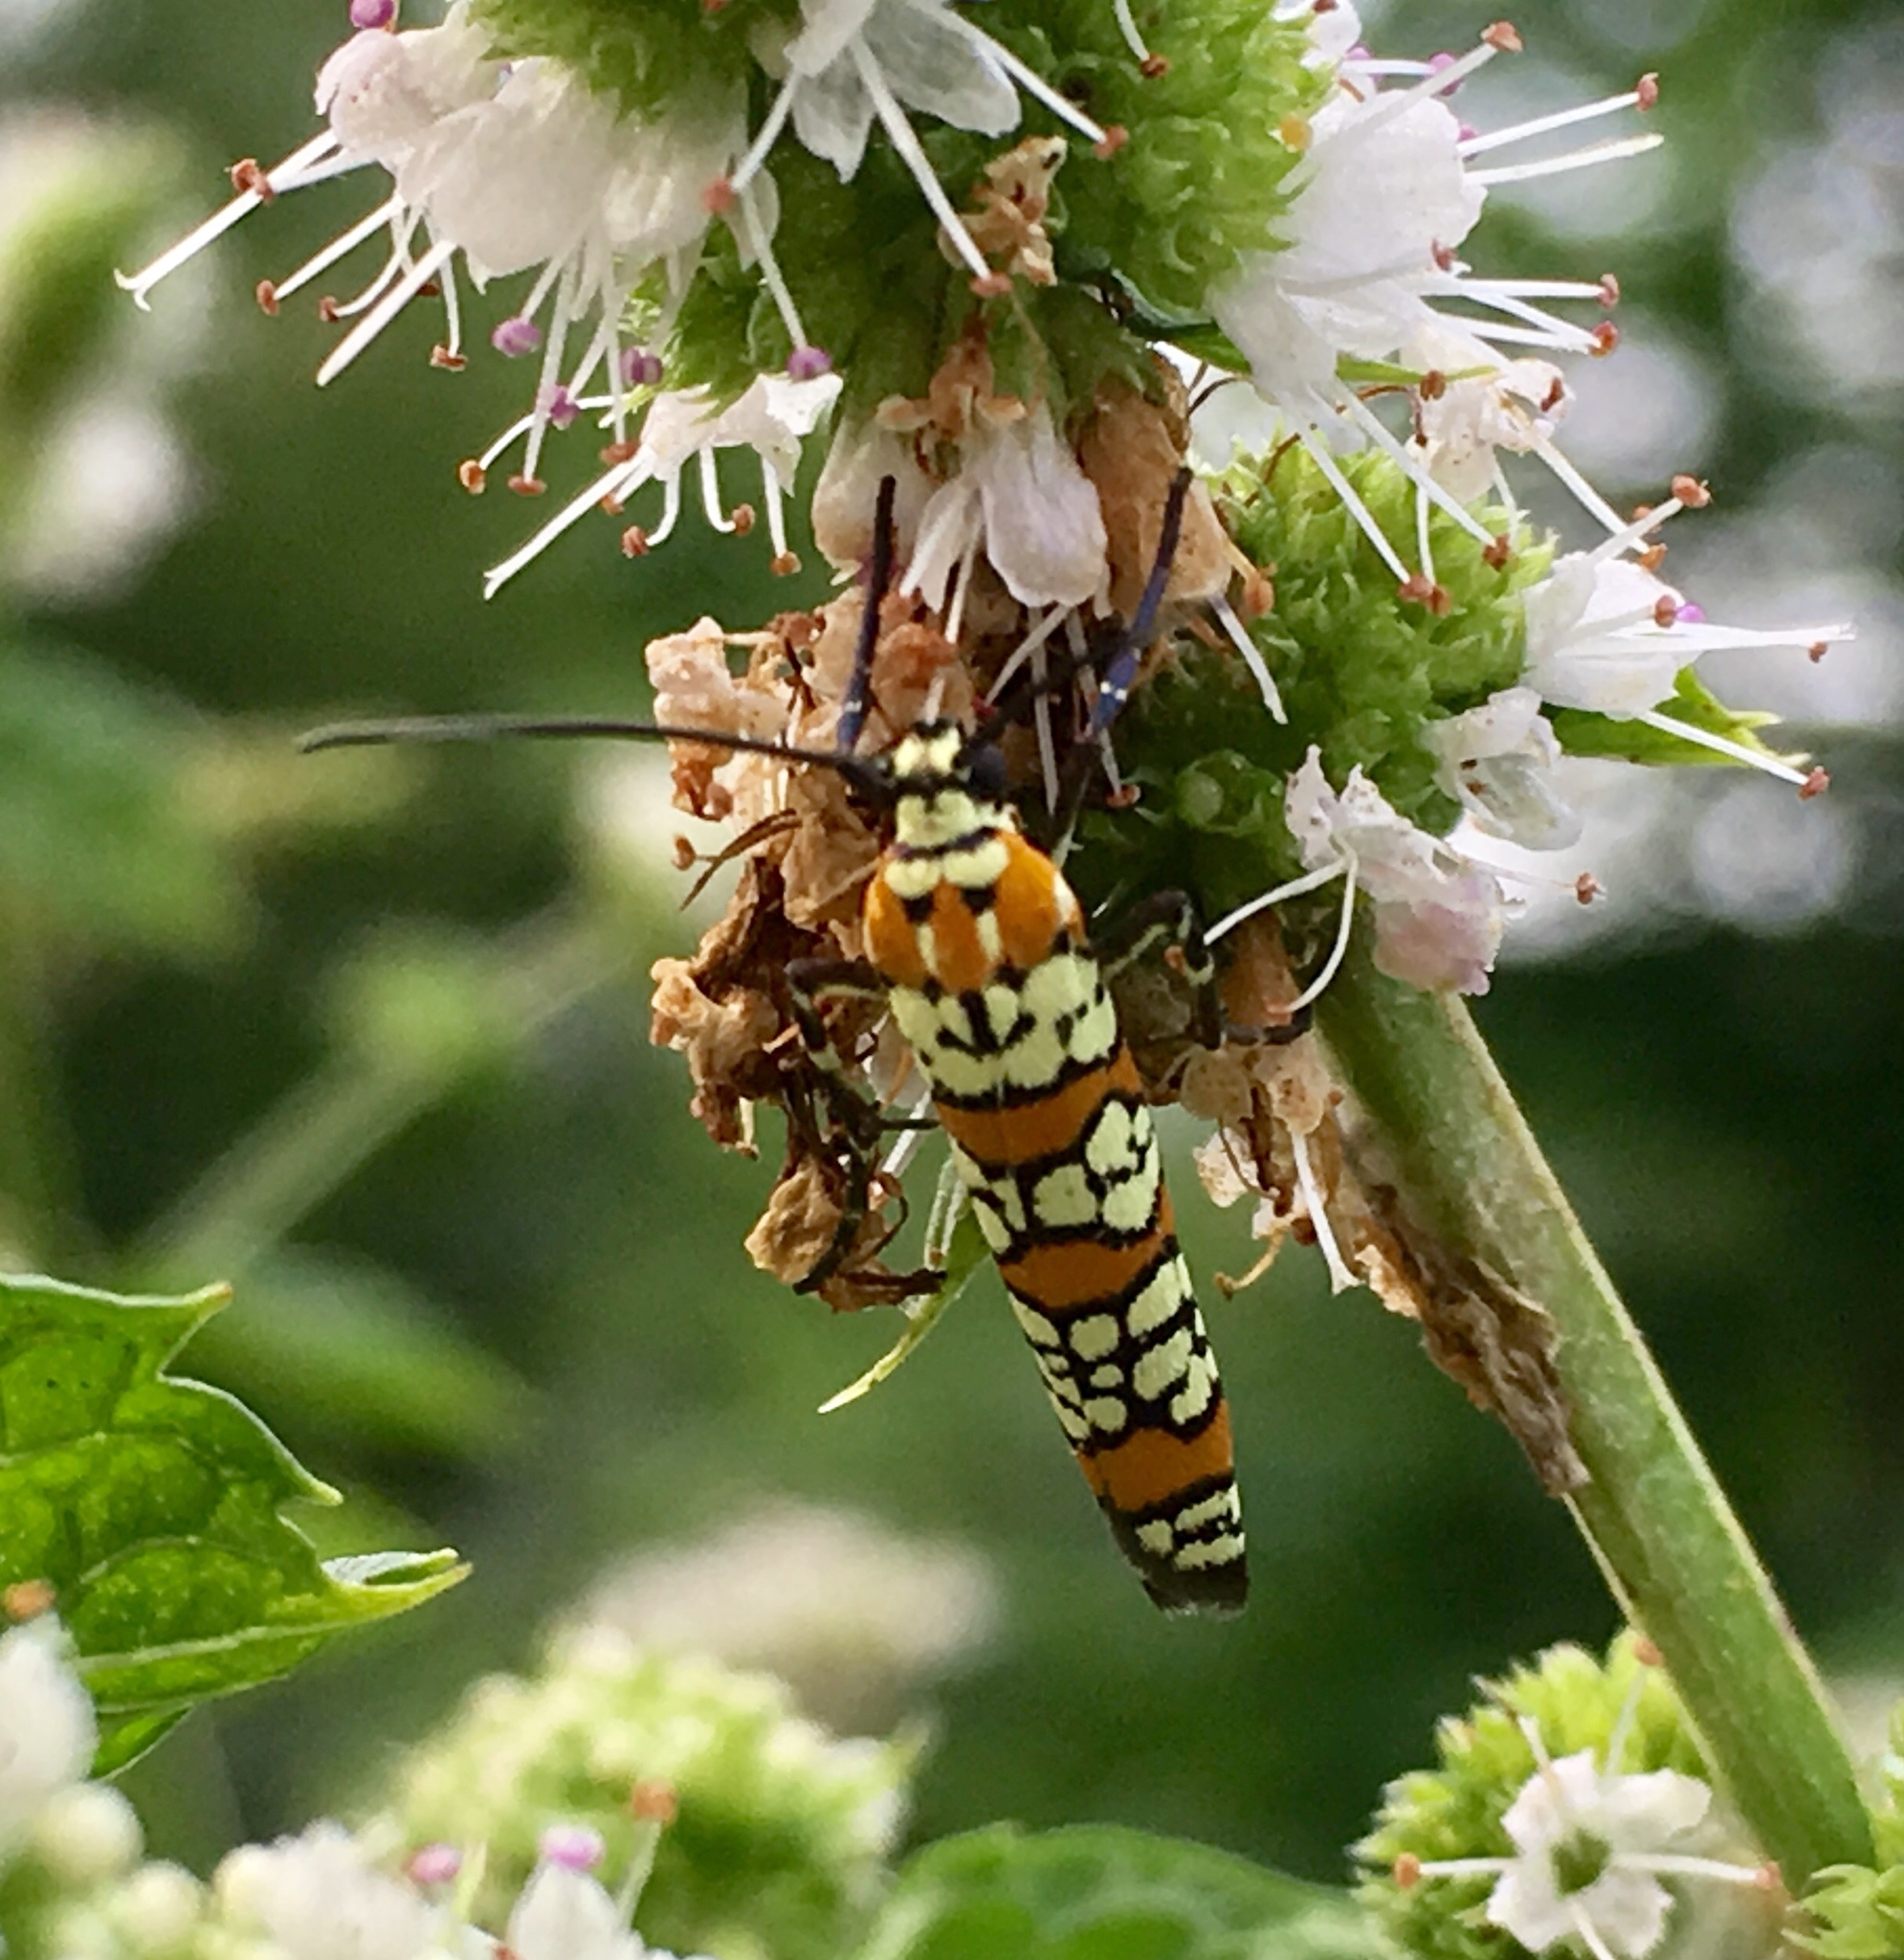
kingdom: Animalia
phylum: Arthropoda
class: Insecta
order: Lepidoptera
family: Attevidae
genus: Atteva
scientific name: Atteva punctella
